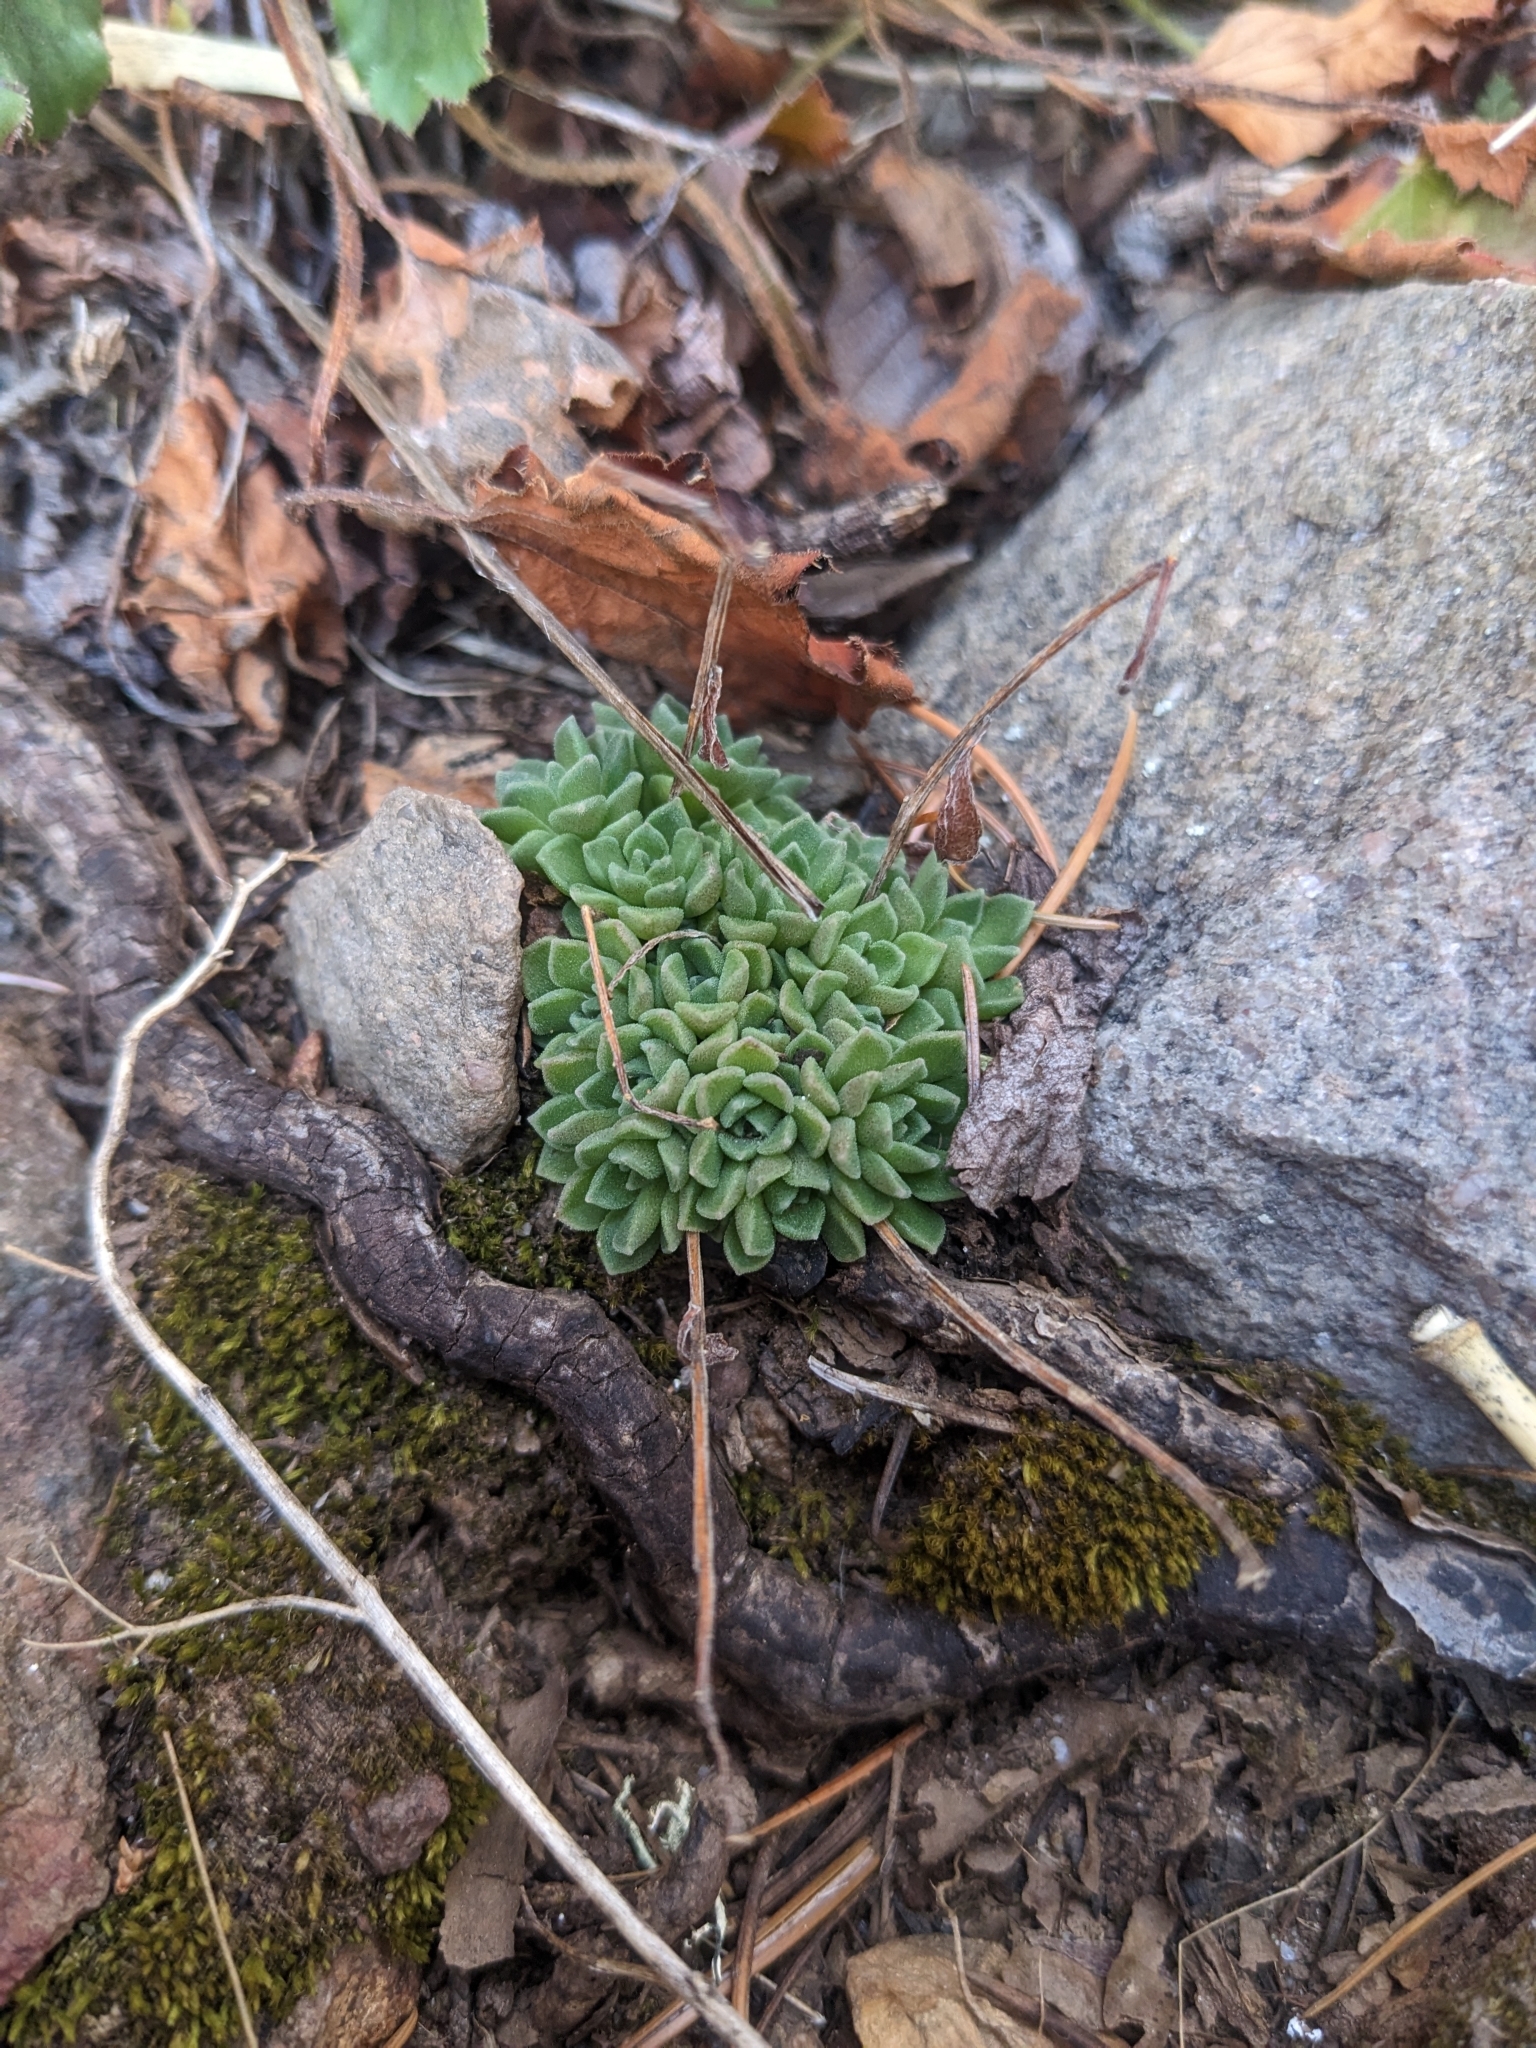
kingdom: Plantae
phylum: Tracheophyta
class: Magnoliopsida
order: Saxifragales
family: Crassulaceae
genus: Sedum
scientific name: Sedum cockerellii
